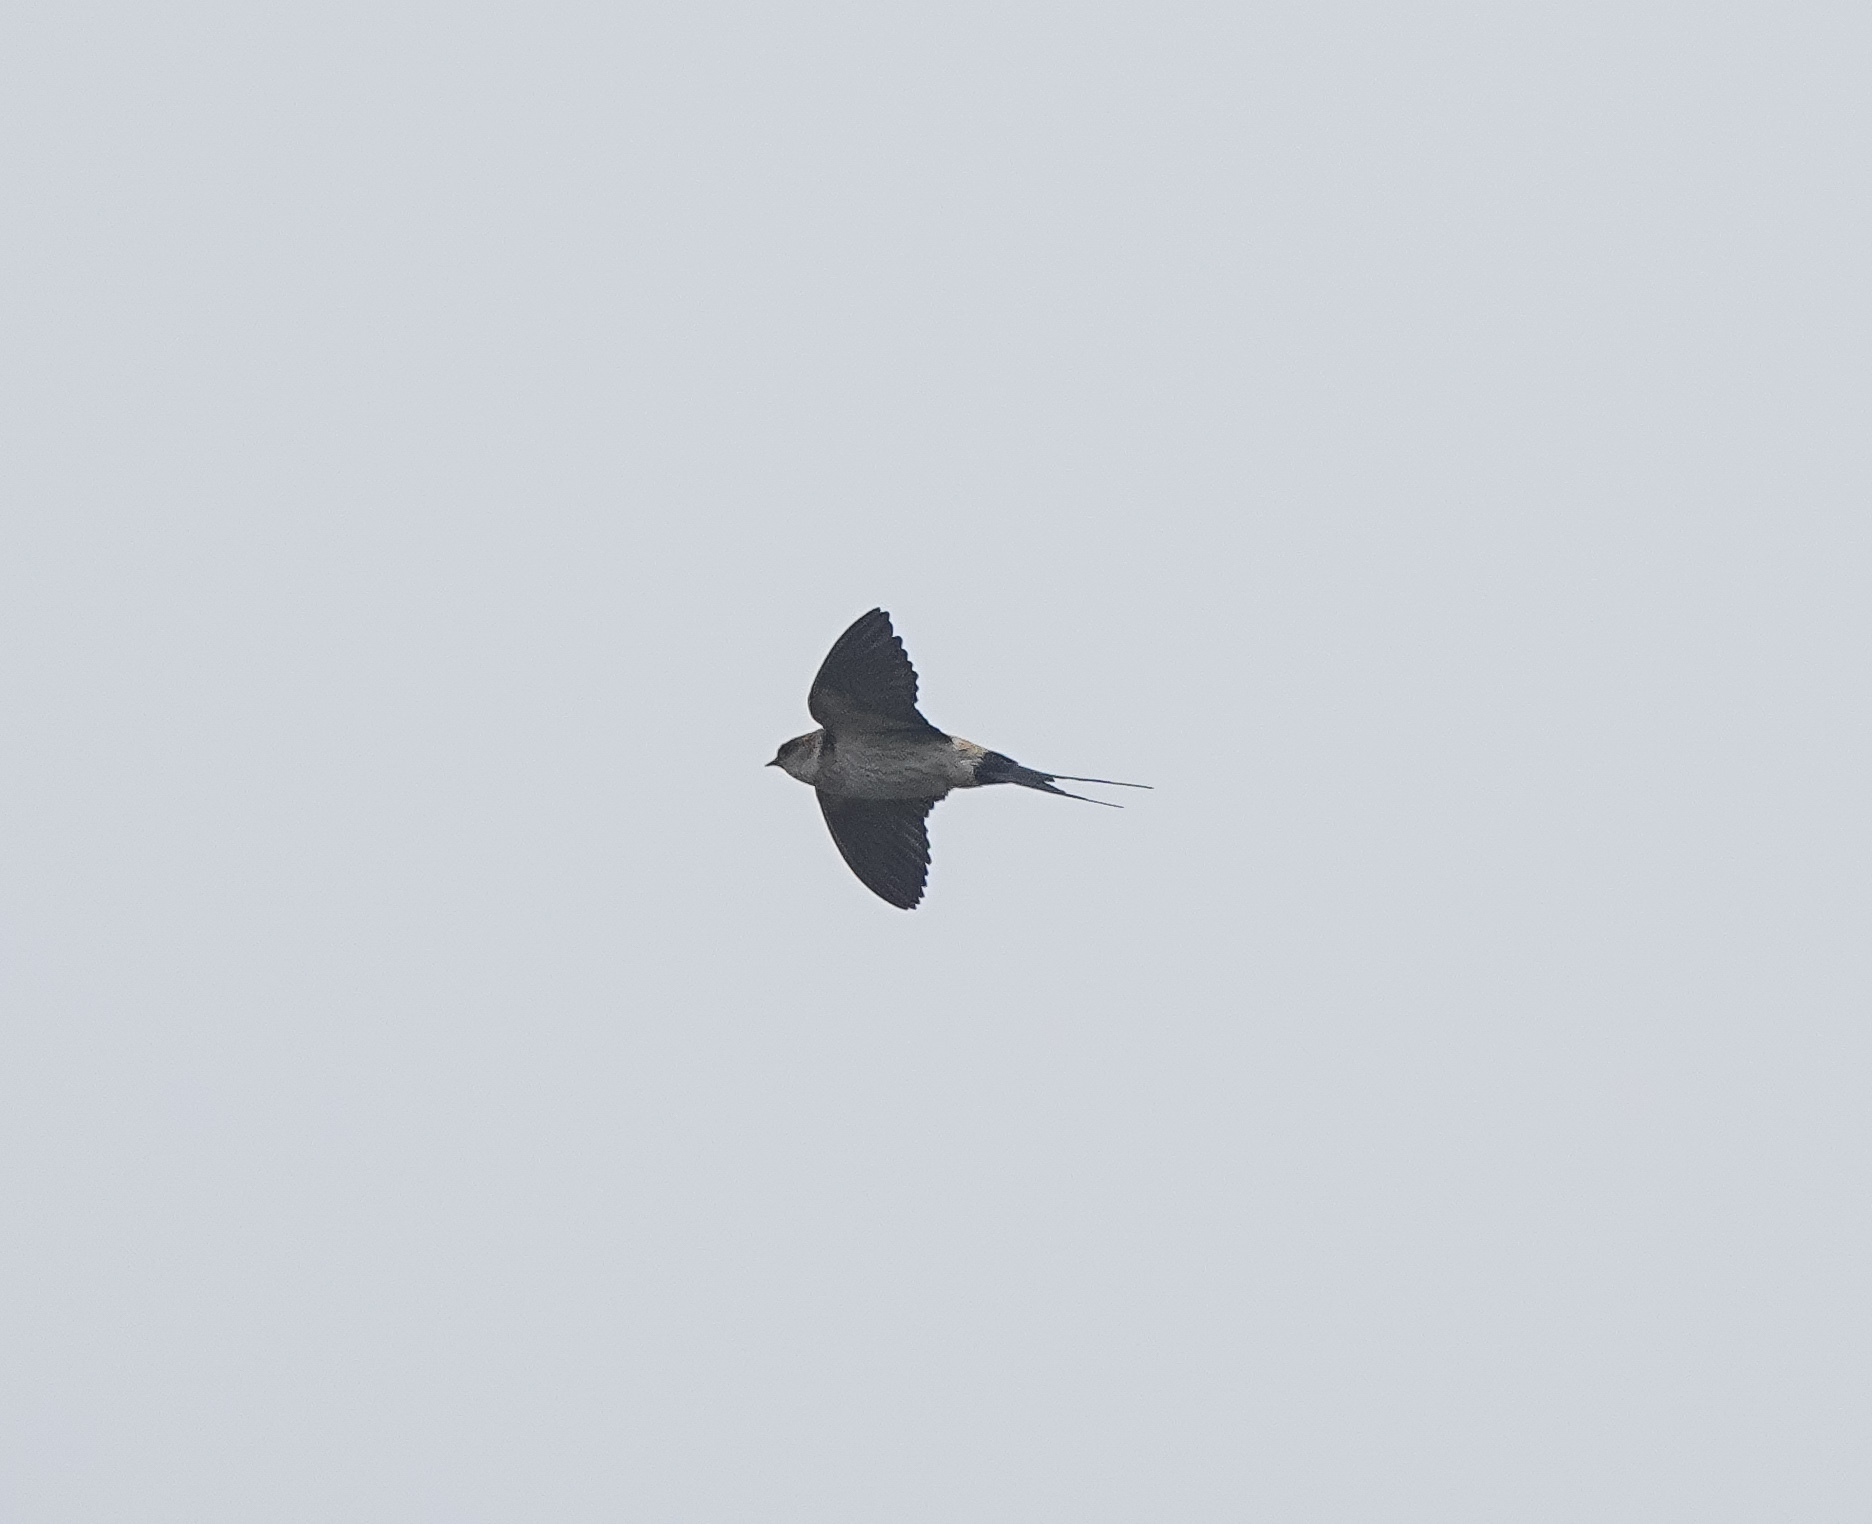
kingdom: Animalia
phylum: Chordata
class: Aves
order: Passeriformes
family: Hirundinidae
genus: Cecropis
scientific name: Cecropis daurica
